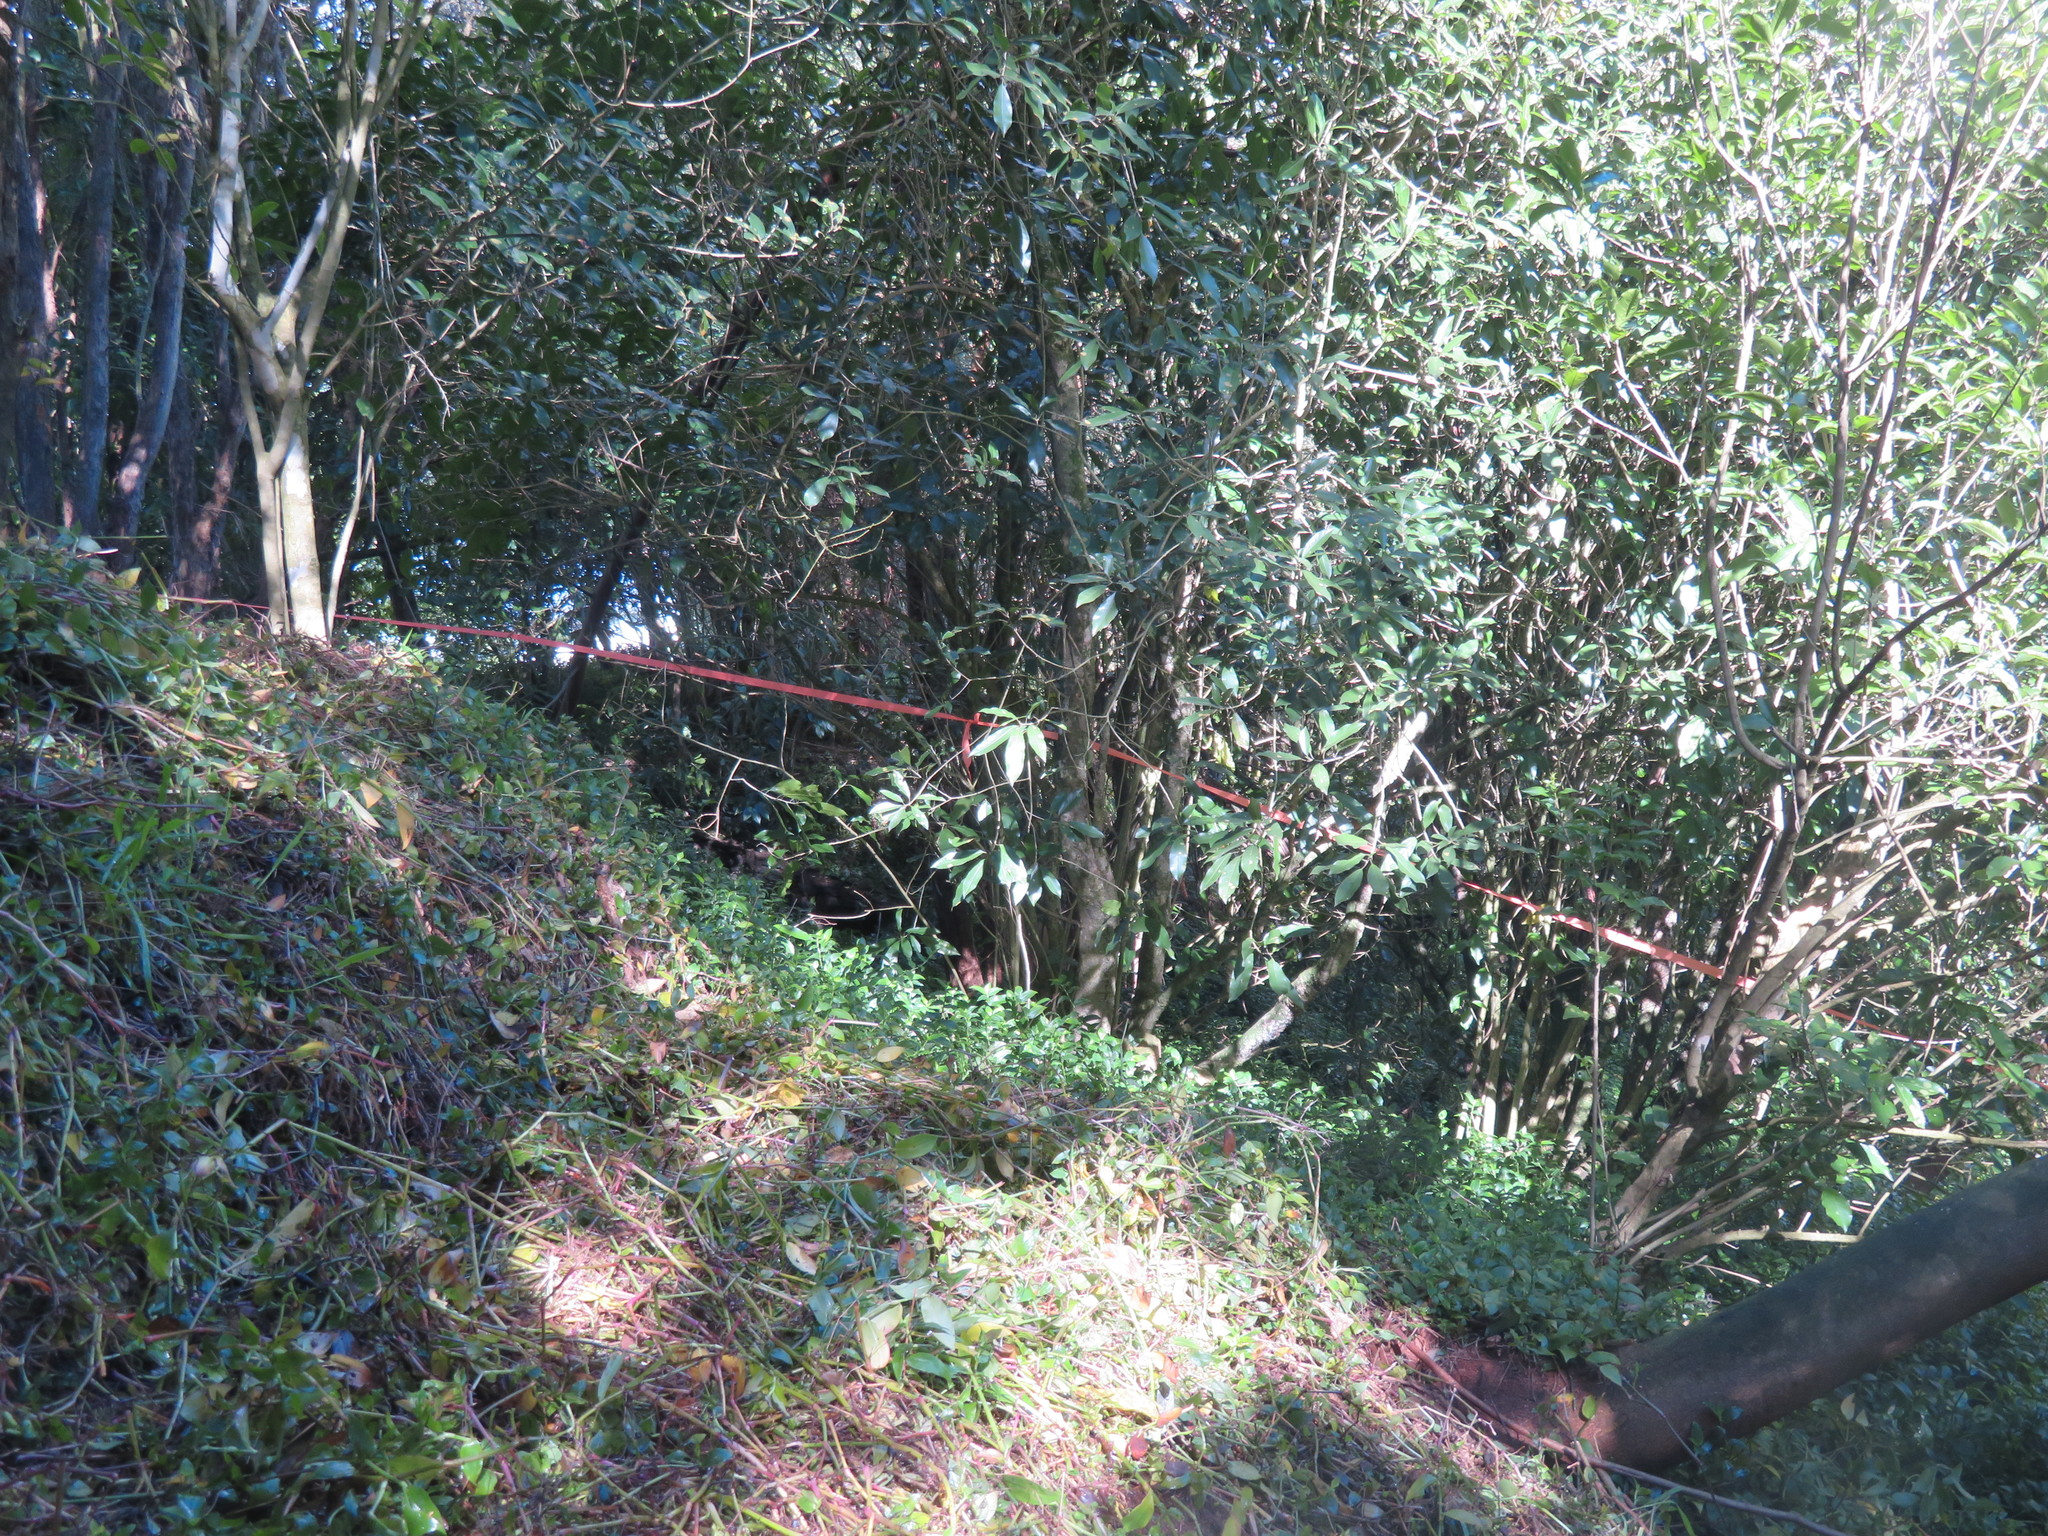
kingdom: Plantae
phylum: Tracheophyta
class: Liliopsida
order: Commelinales
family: Commelinaceae
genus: Tradescantia
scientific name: Tradescantia fluminensis
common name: Wandering-jew
